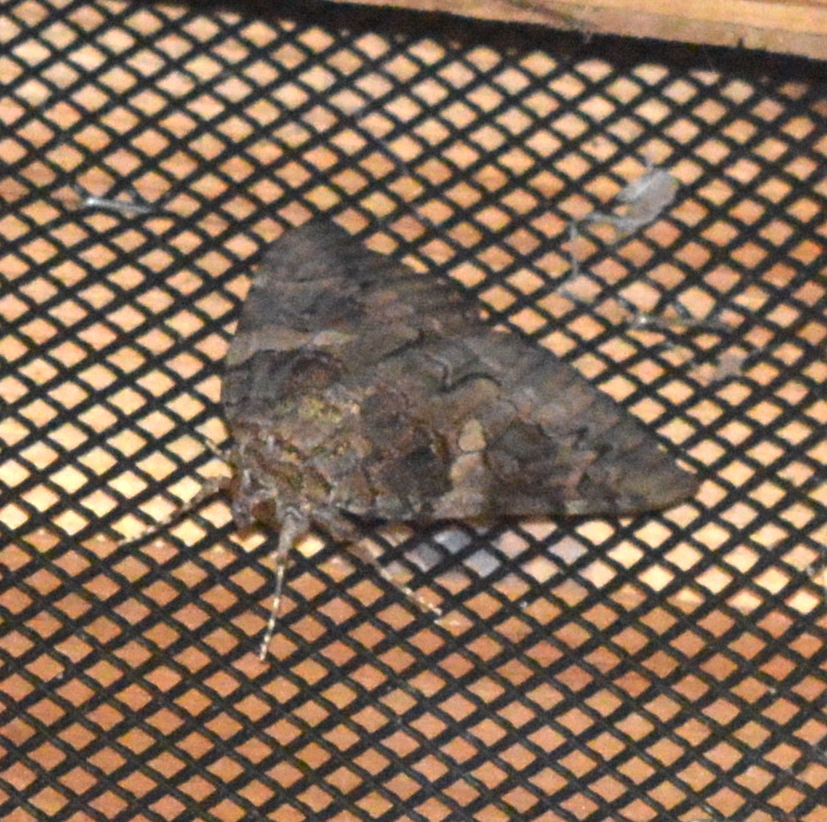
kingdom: Animalia
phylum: Arthropoda
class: Insecta
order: Lepidoptera
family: Erebidae
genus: Catocala
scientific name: Catocala piatrix
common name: The penitent underwing
